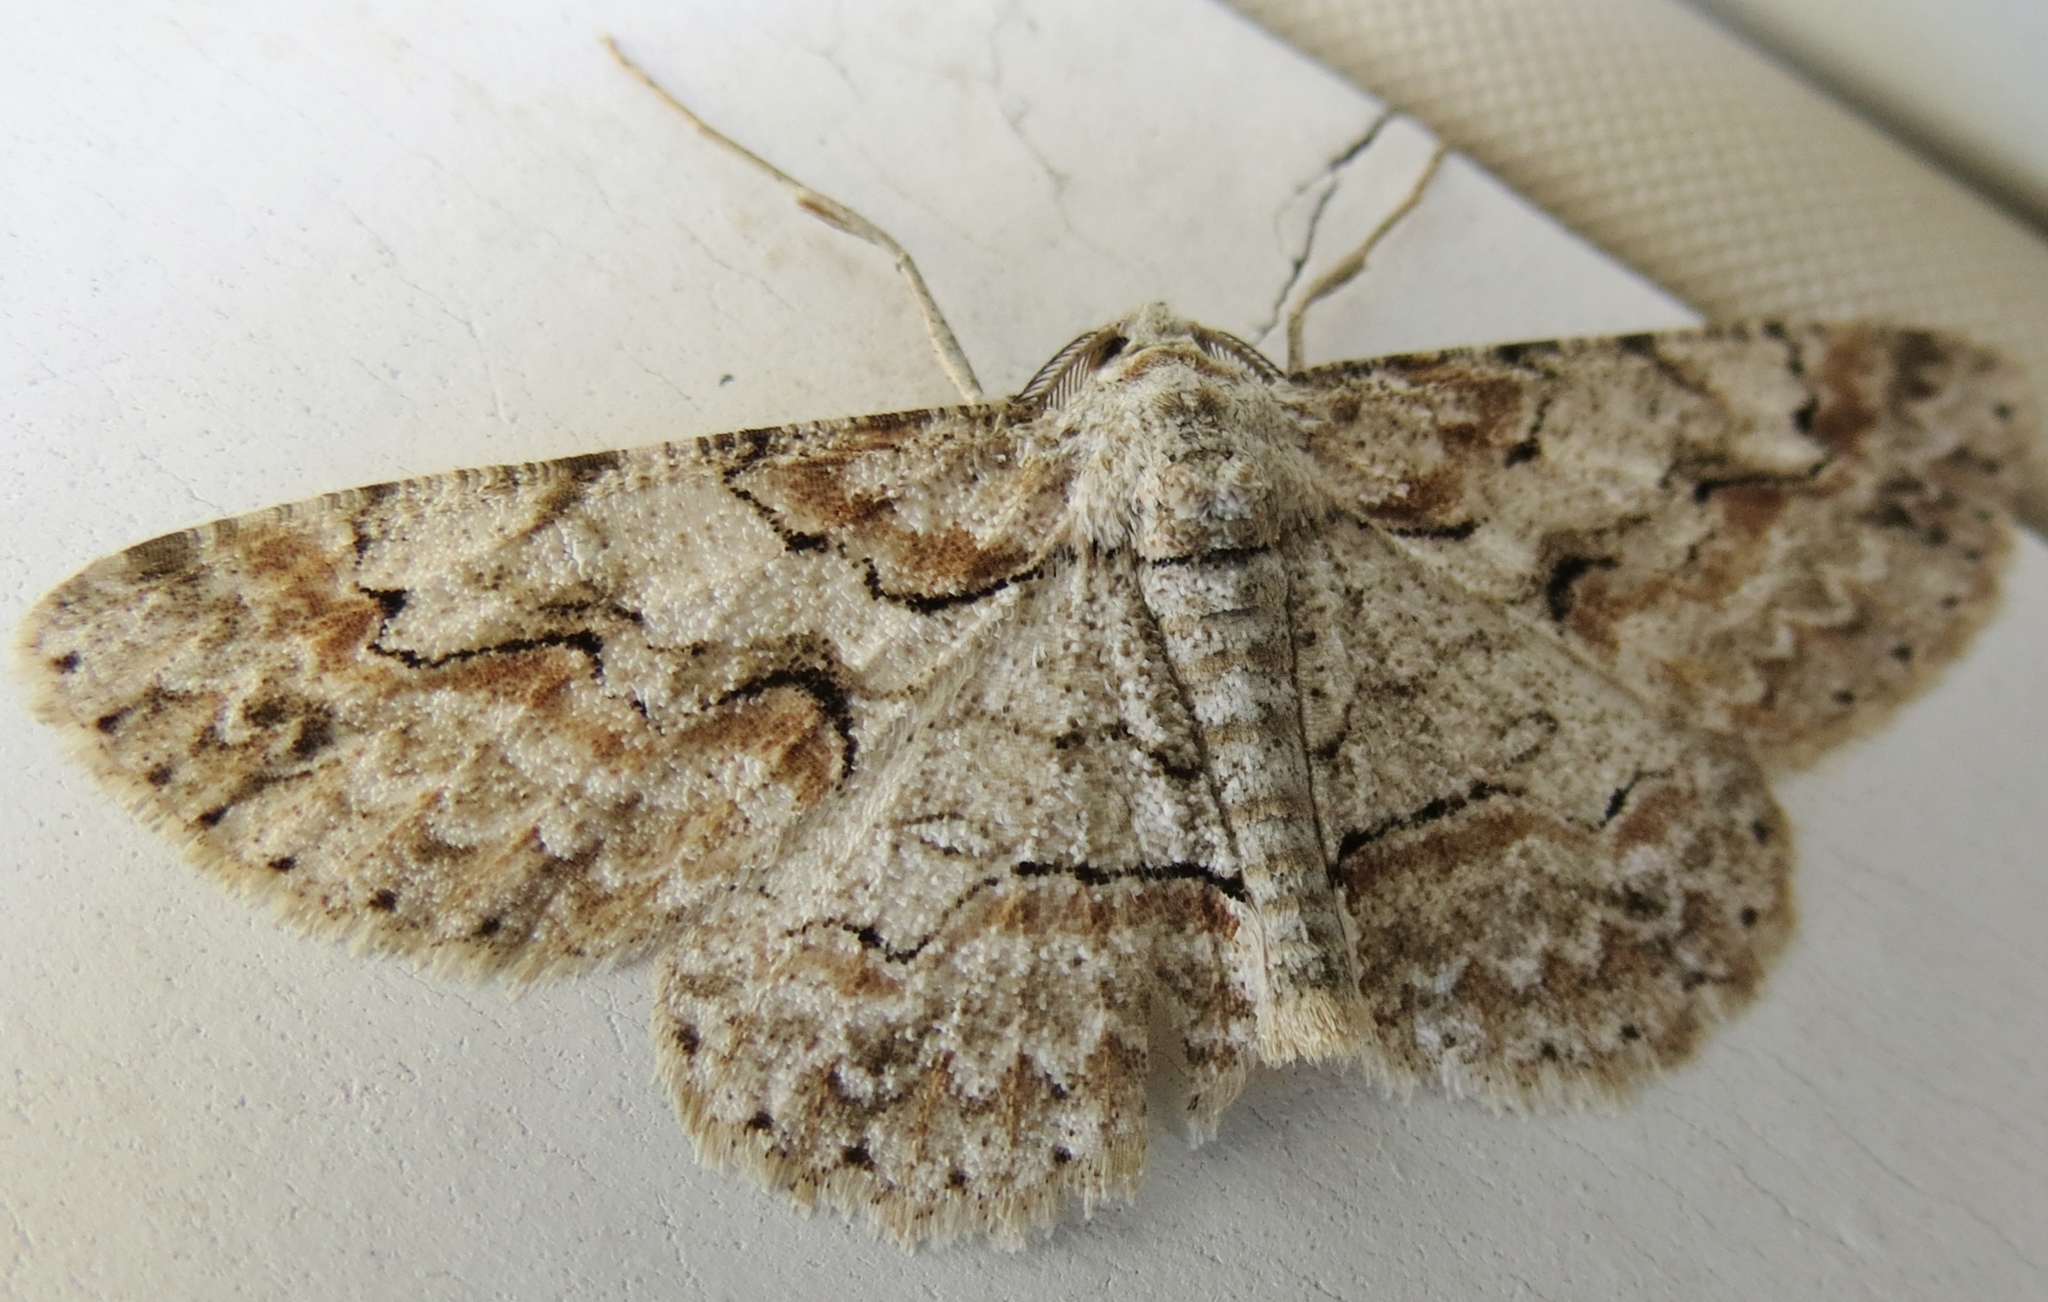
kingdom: Animalia
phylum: Arthropoda
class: Insecta
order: Lepidoptera
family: Geometridae
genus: Iridopsis
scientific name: Iridopsis defectaria
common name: Brown-shaded gray
